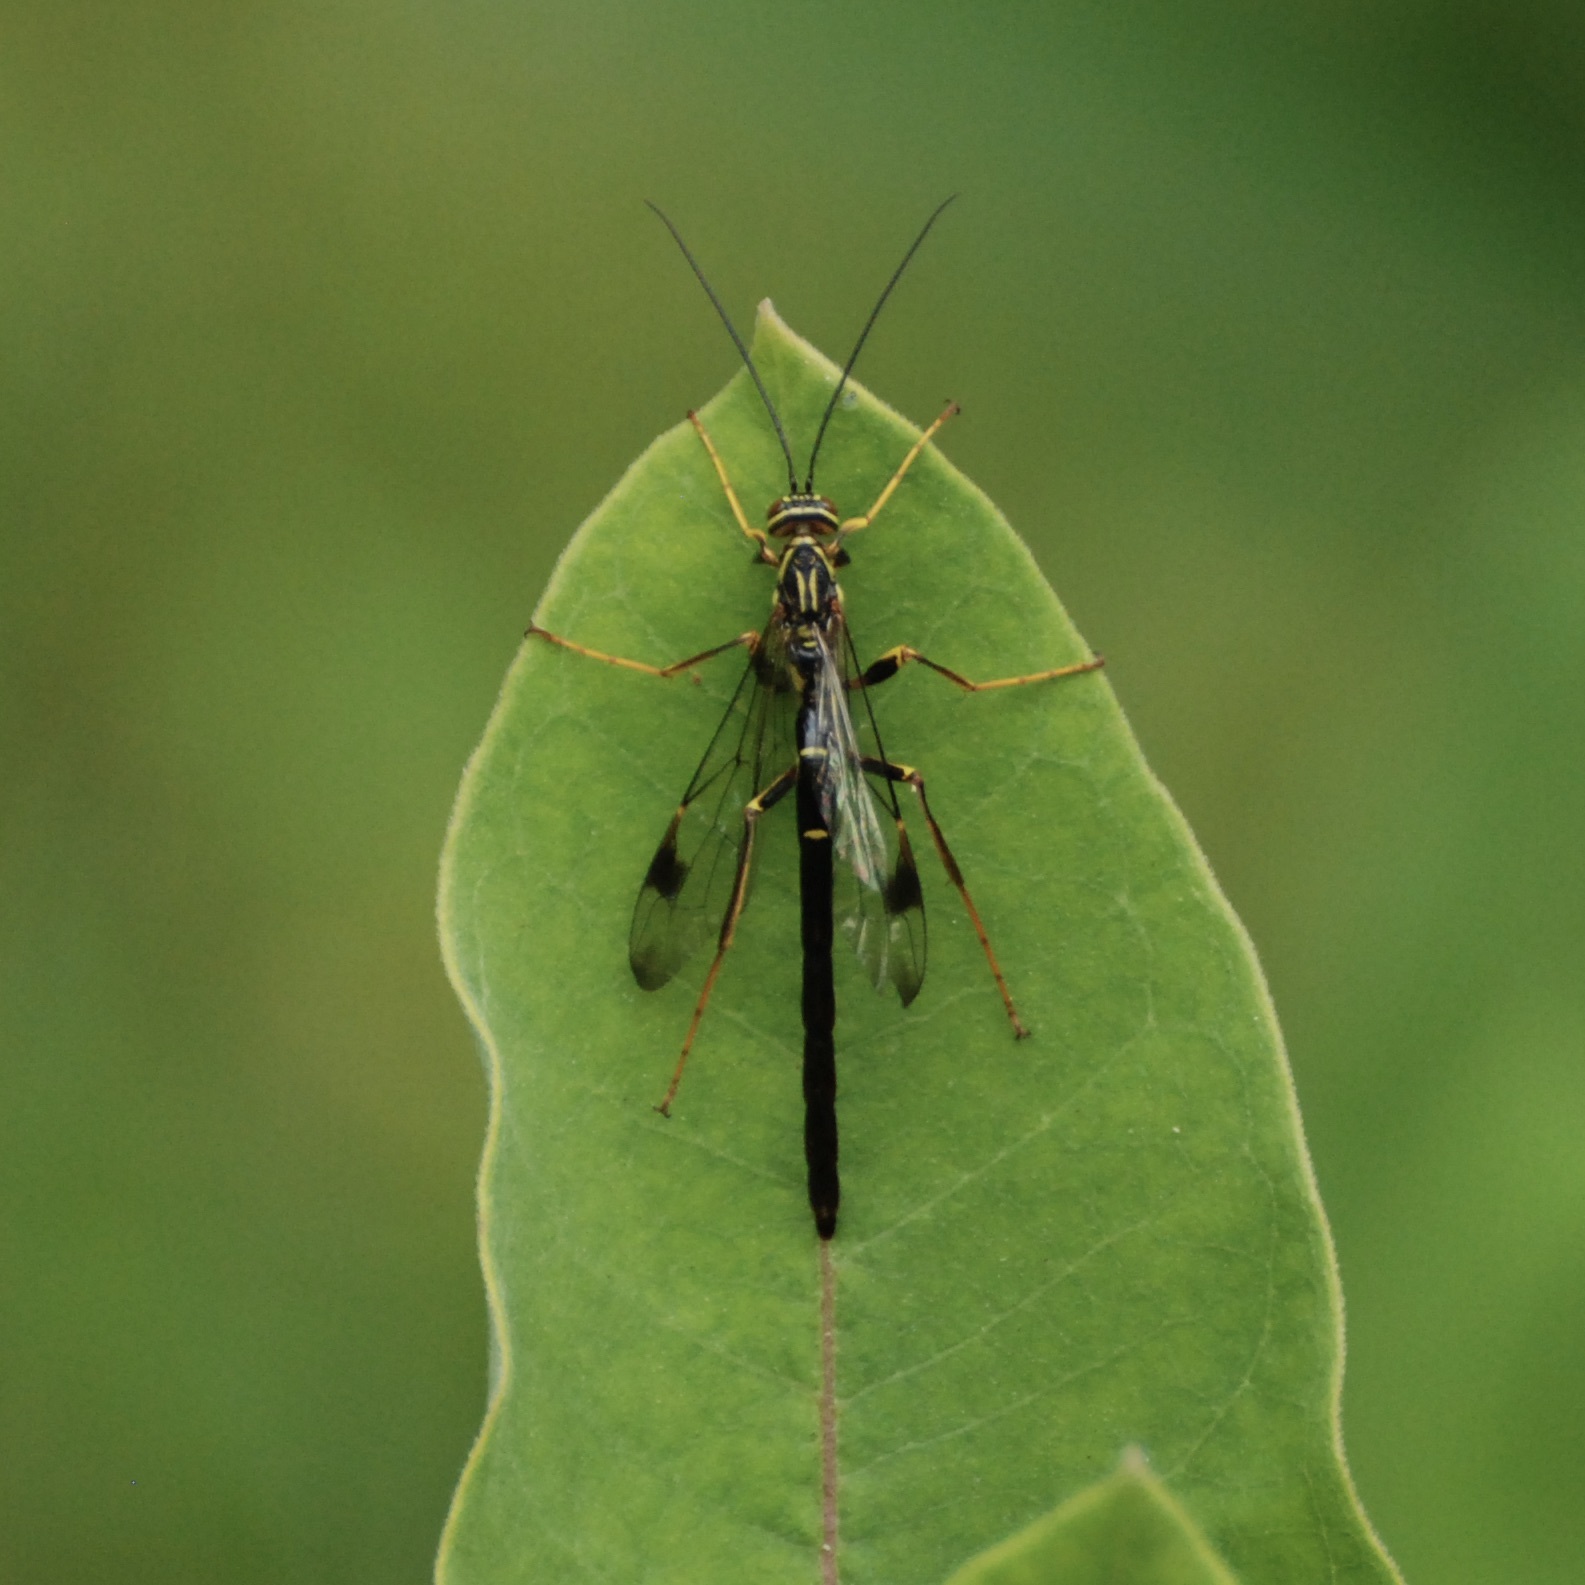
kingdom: Animalia
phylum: Arthropoda
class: Insecta
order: Hymenoptera
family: Ichneumonidae
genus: Megarhyssa
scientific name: Megarhyssa macrura
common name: Long-tailed giant ichneumonid wasp
